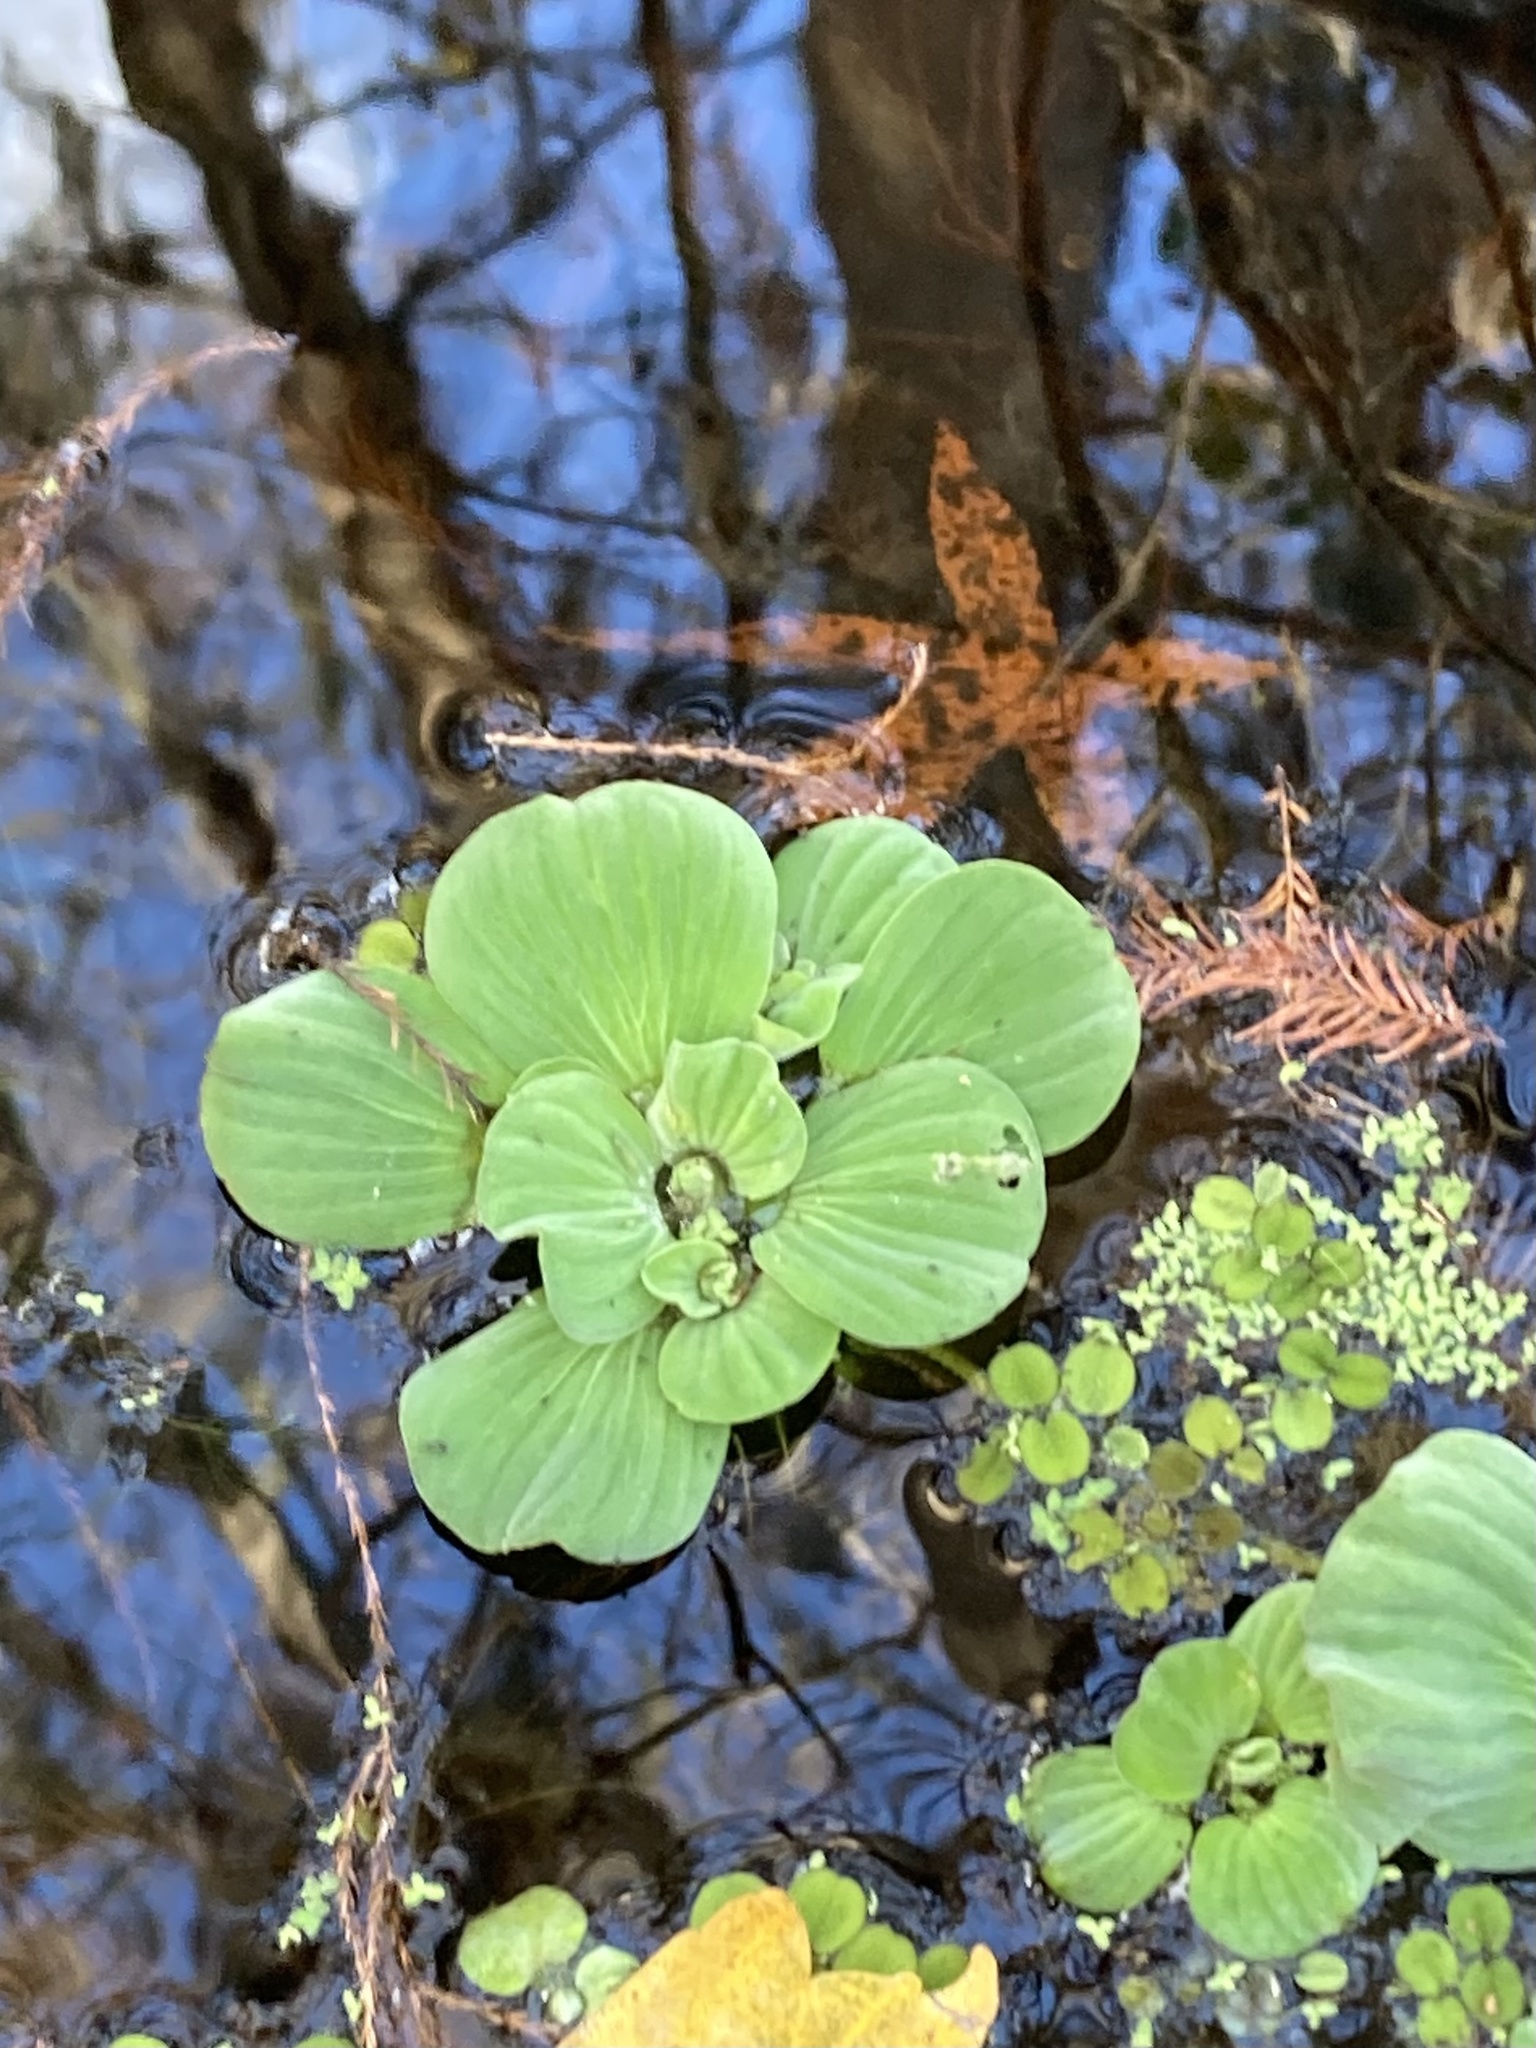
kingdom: Plantae
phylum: Tracheophyta
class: Liliopsida
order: Alismatales
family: Araceae
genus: Pistia
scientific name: Pistia stratiotes
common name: Water lettuce
